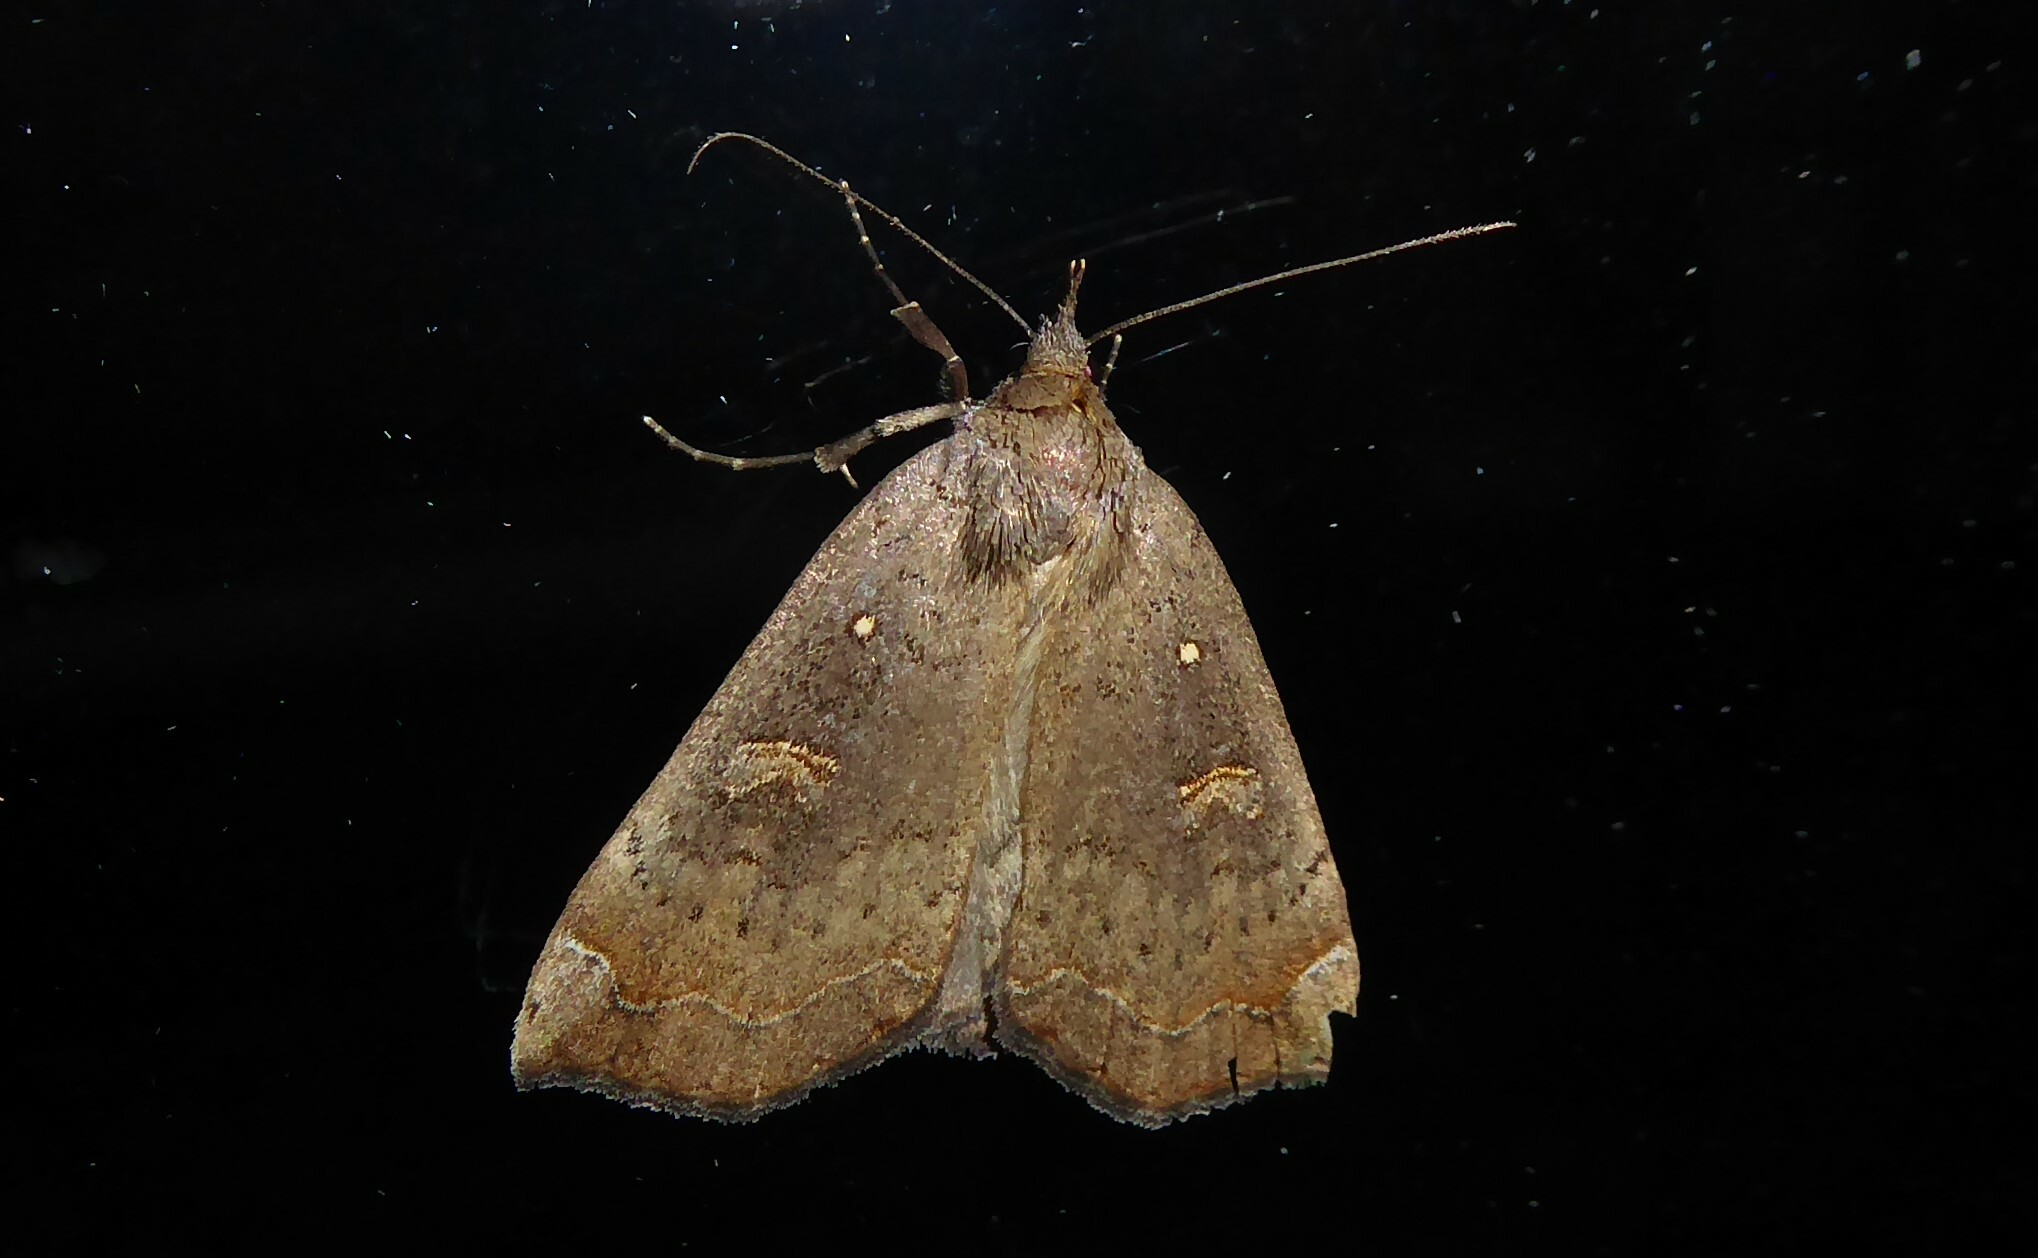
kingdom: Animalia
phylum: Arthropoda
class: Insecta
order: Lepidoptera
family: Erebidae
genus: Rhapsa
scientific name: Rhapsa scotosialis
